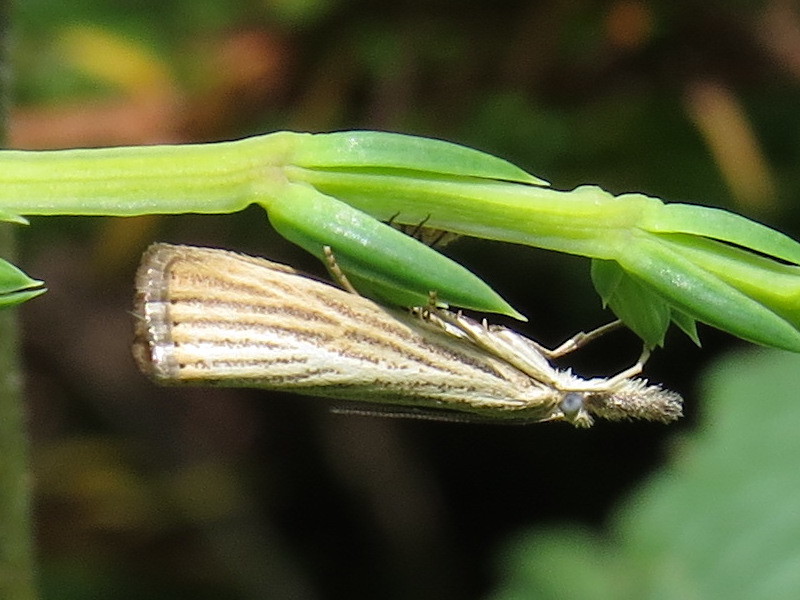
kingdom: Animalia
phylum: Arthropoda
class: Insecta
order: Lepidoptera
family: Crambidae
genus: Agriphila
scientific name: Agriphila straminella
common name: Straw grass-veneer
